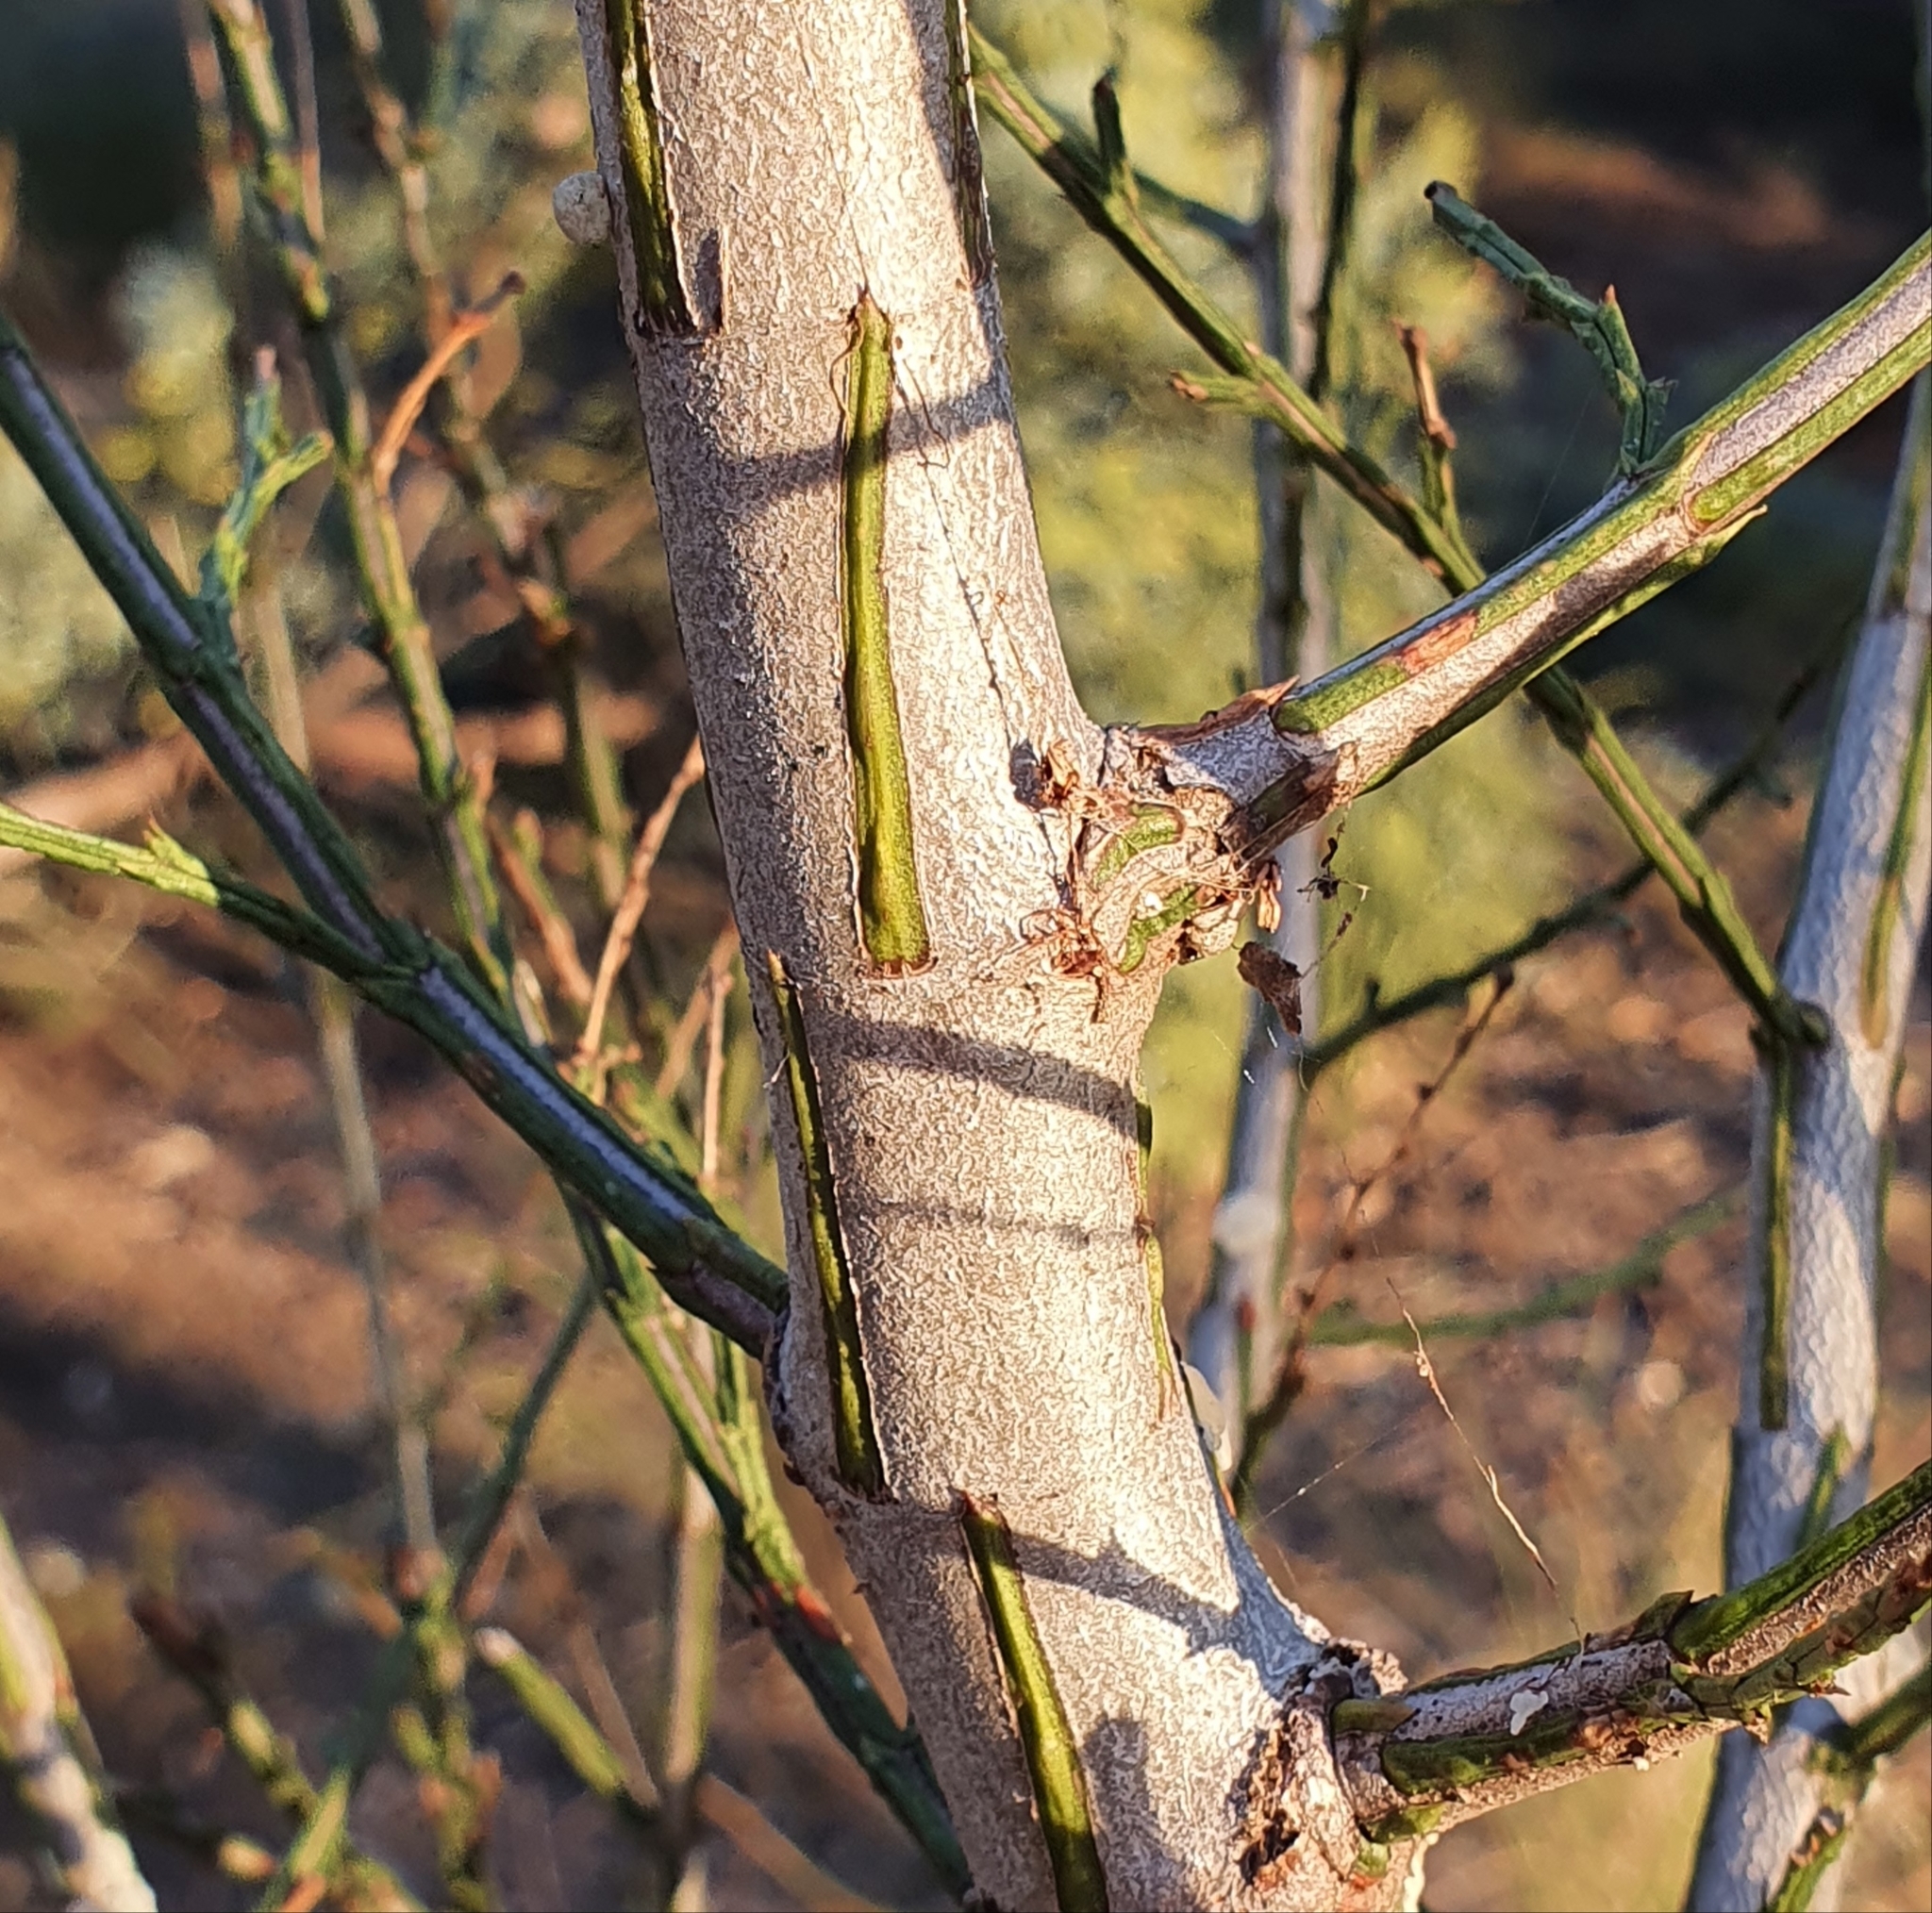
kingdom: Plantae
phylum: Tracheophyta
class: Pinopsida
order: Pinales
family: Cupressaceae
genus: Callitris
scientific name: Callitris endlicheri
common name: Black cypress-pine
